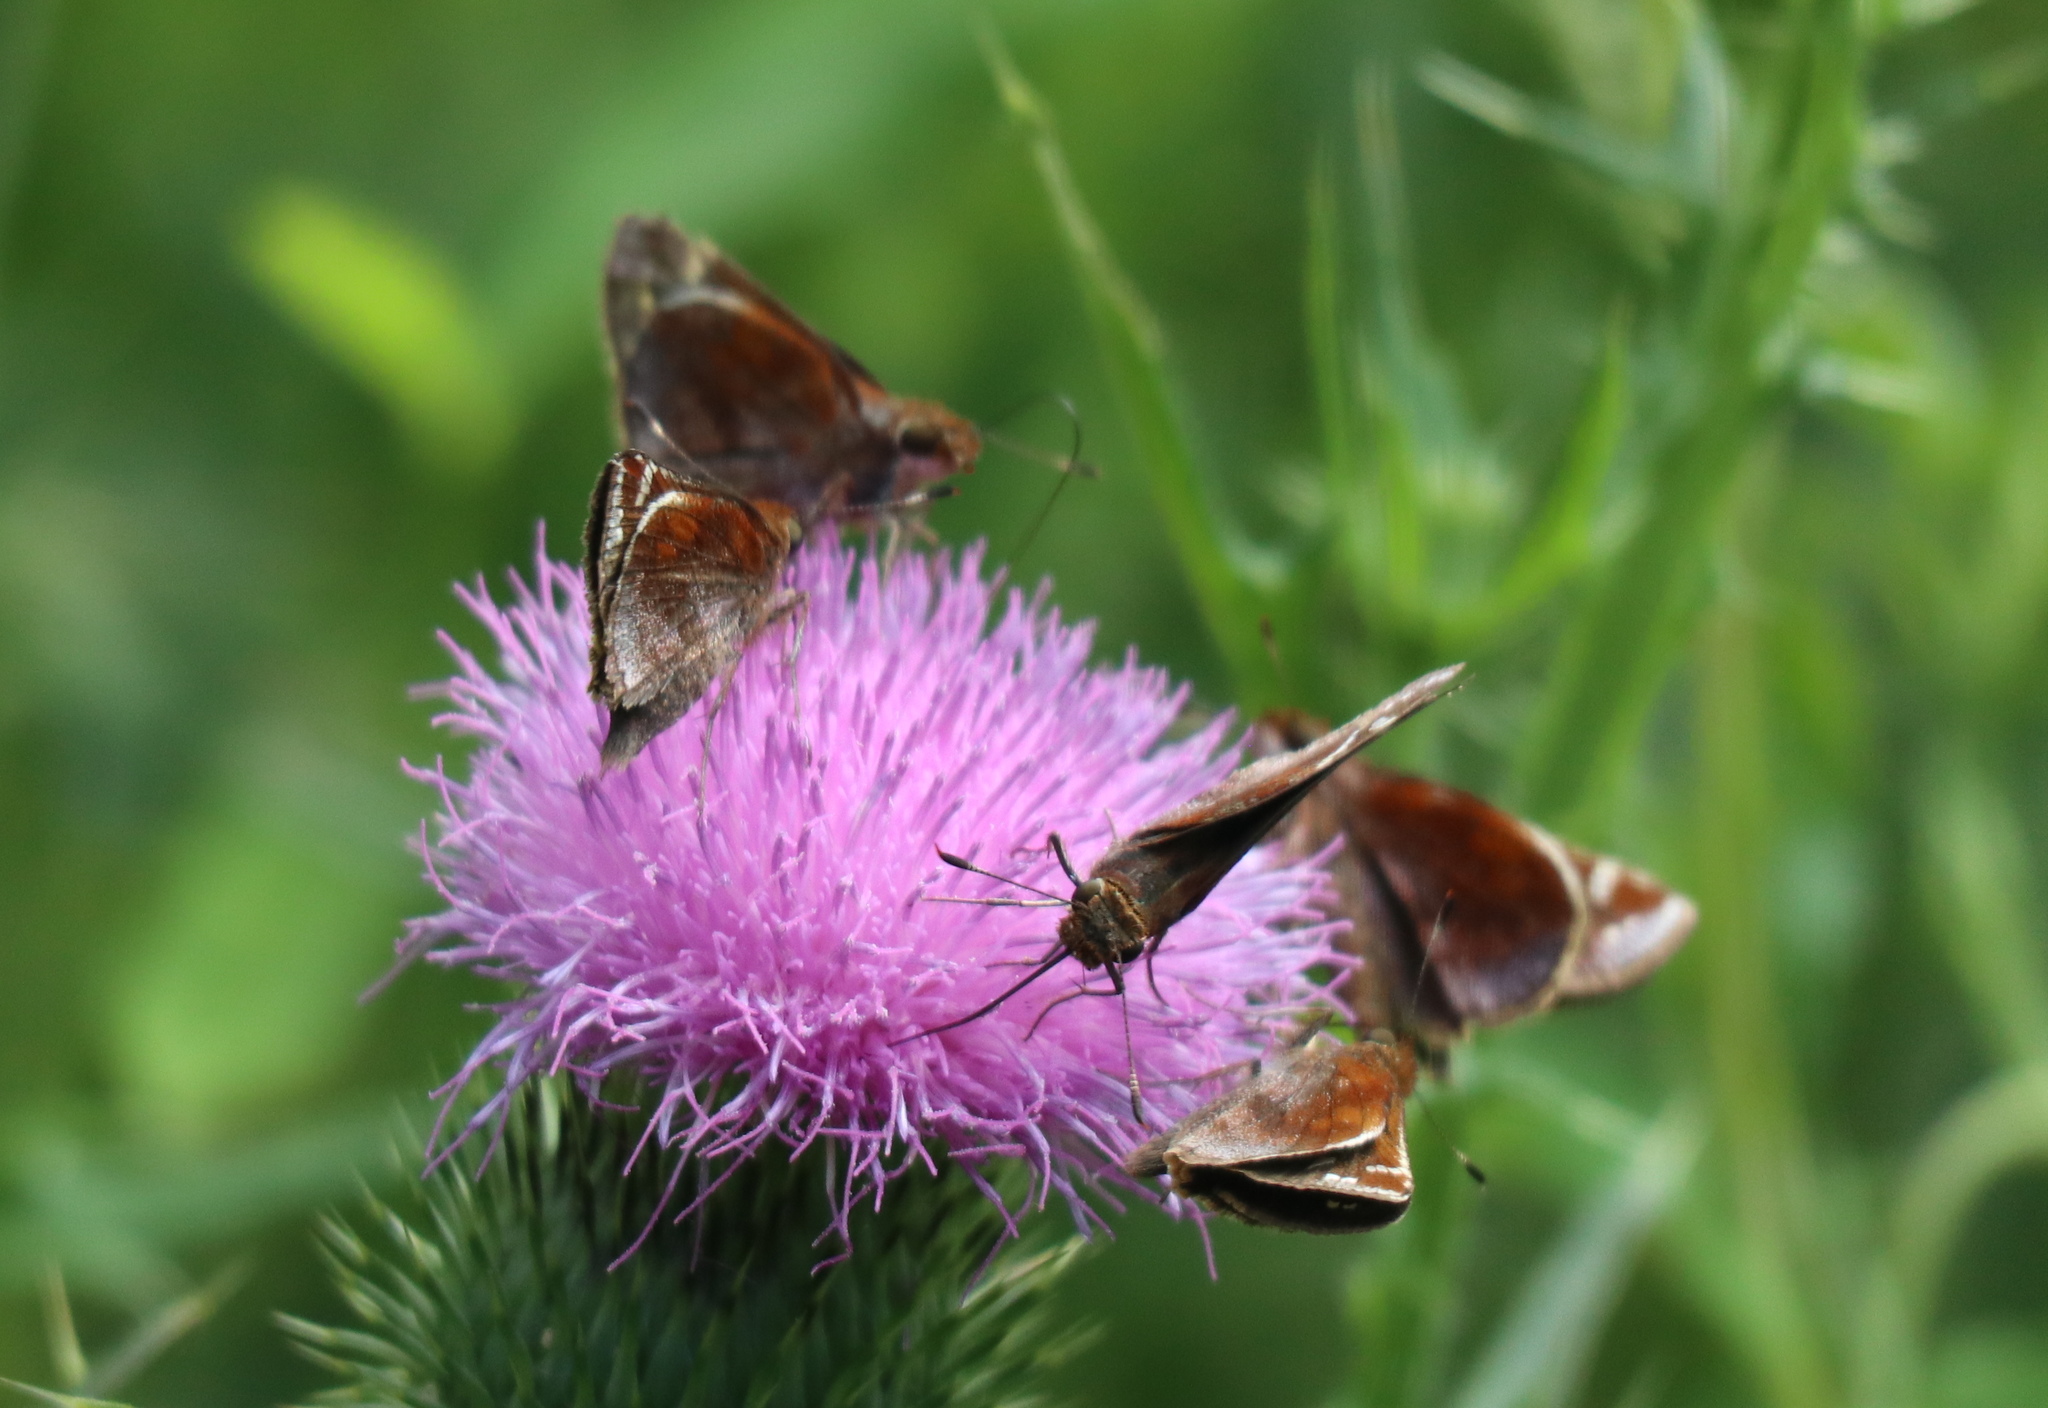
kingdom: Animalia
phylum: Arthropoda
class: Insecta
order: Lepidoptera
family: Hesperiidae
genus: Lon
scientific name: Lon zabulon
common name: Zabulon skipper
